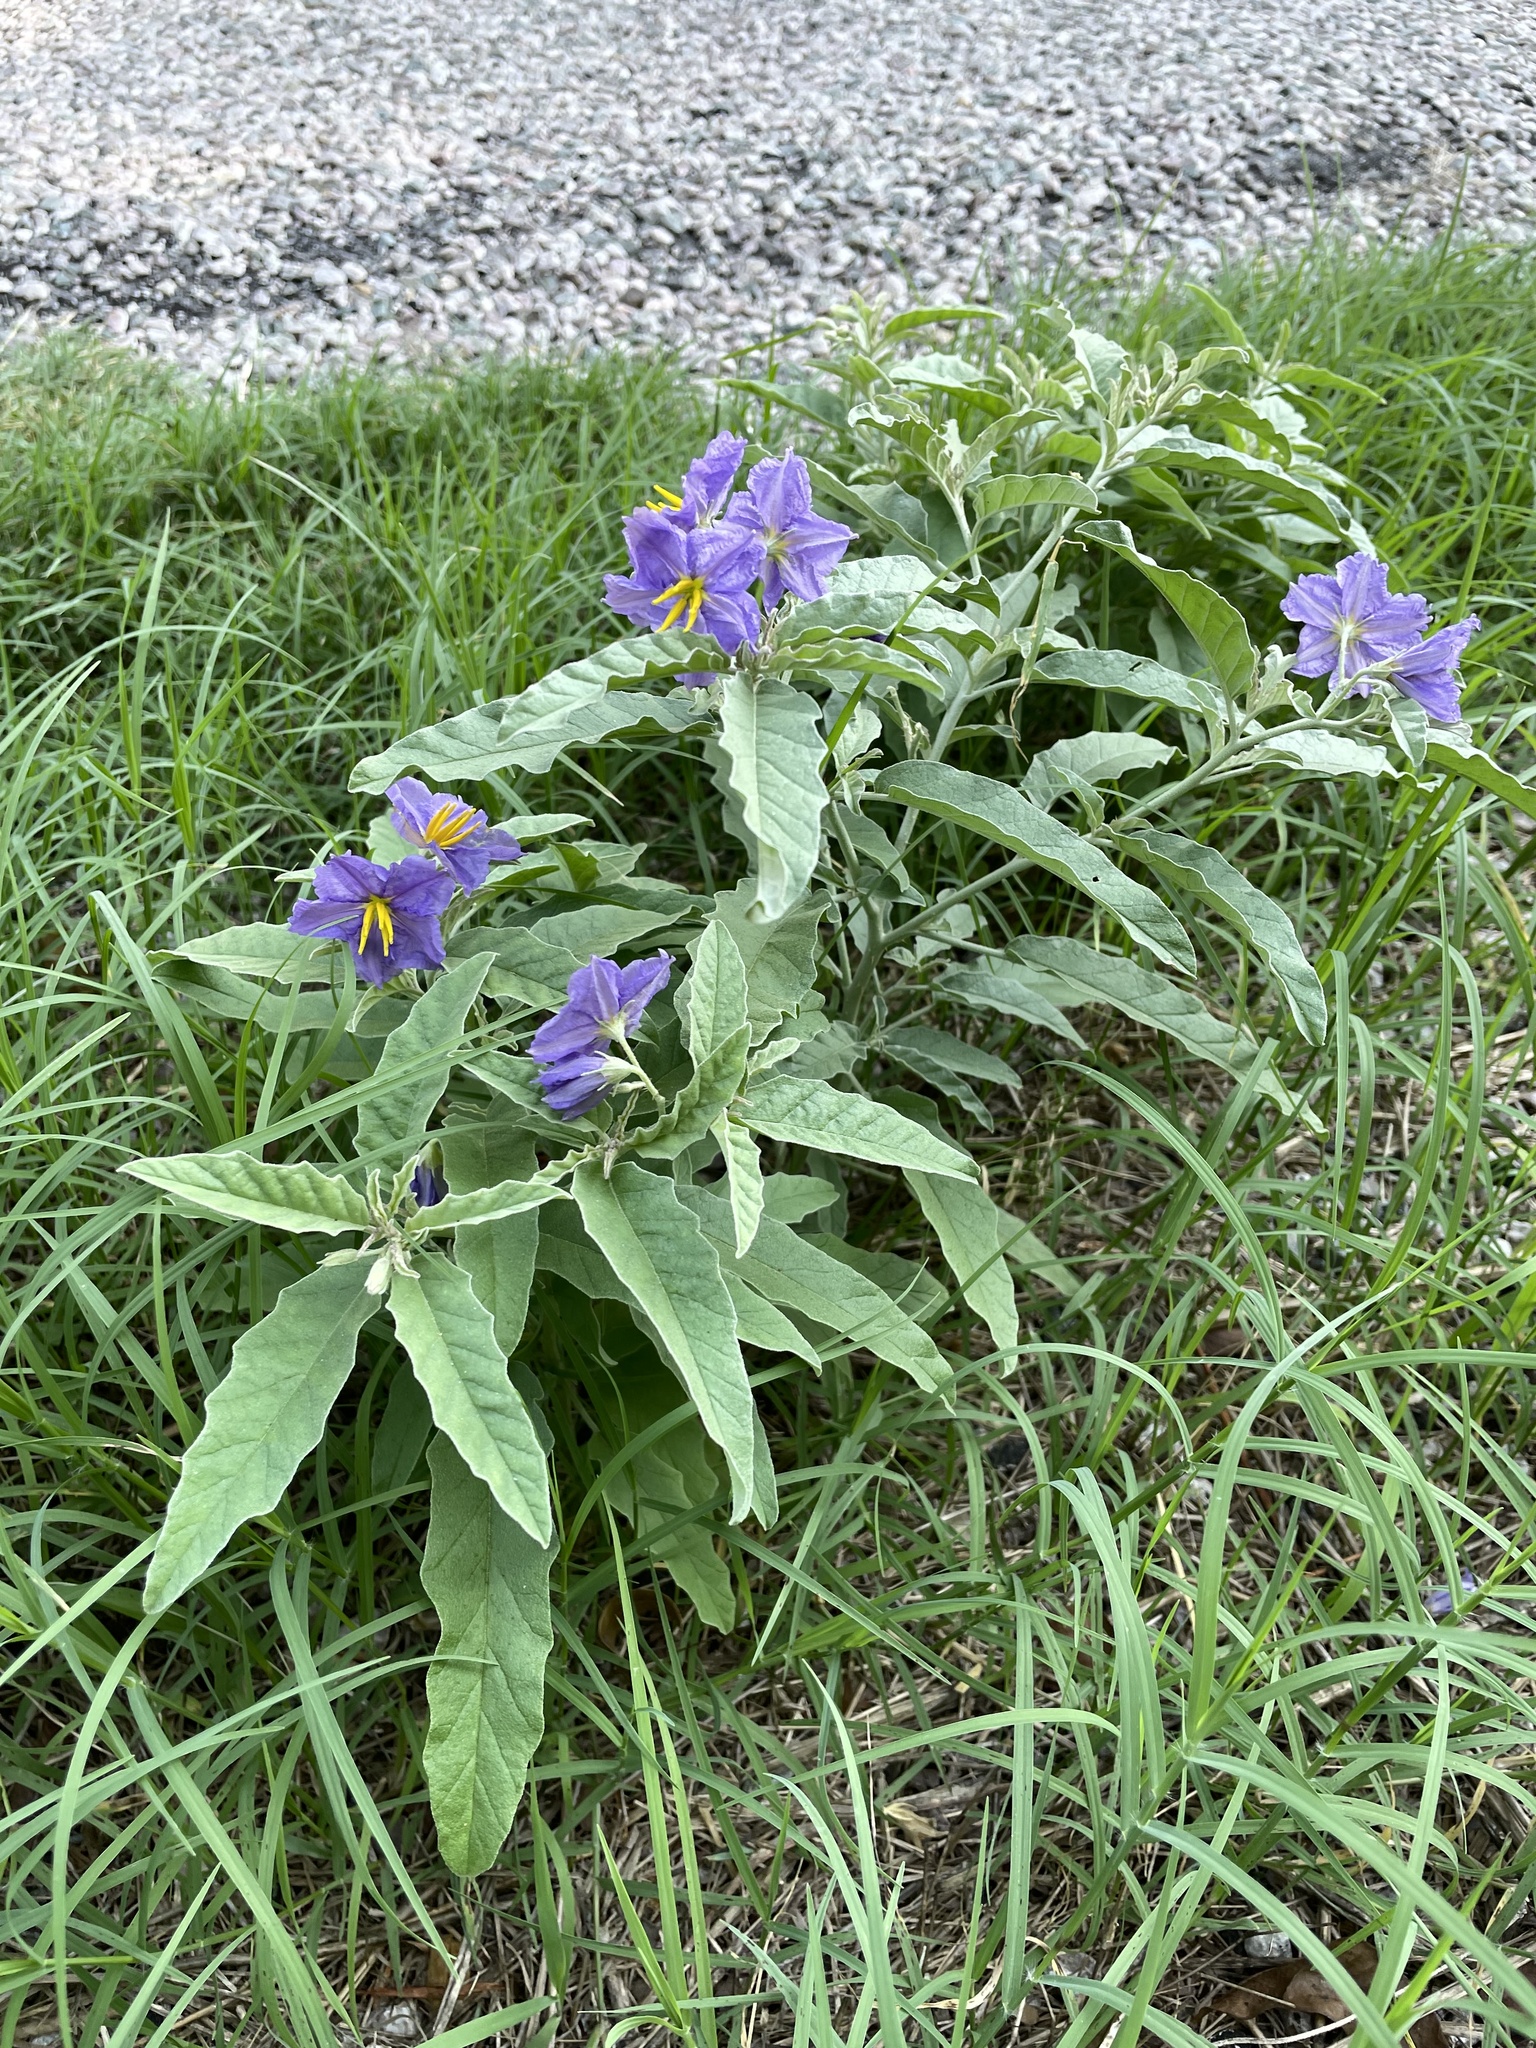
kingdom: Plantae
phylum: Tracheophyta
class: Magnoliopsida
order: Solanales
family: Solanaceae
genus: Solanum
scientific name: Solanum elaeagnifolium
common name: Silverleaf nightshade
